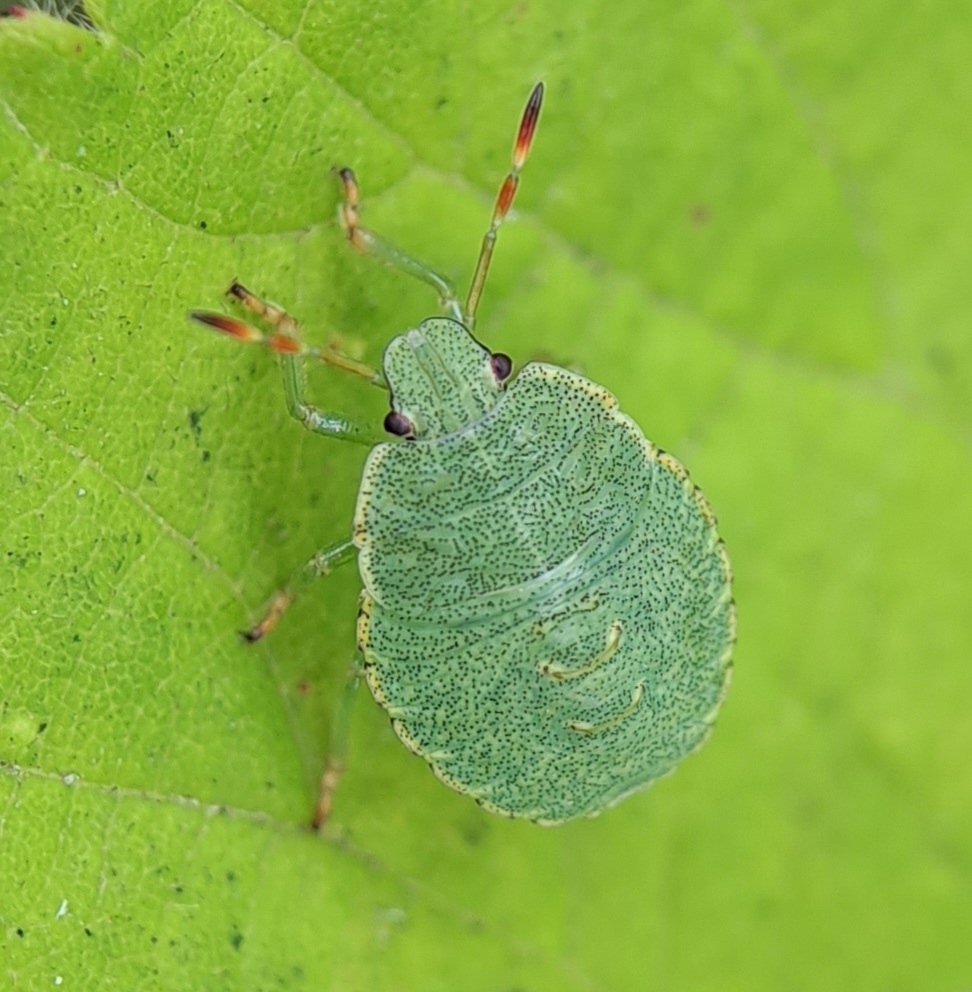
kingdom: Animalia
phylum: Arthropoda
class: Insecta
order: Hemiptera
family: Pentatomidae
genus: Palomena
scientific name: Palomena prasina
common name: Green shieldbug
